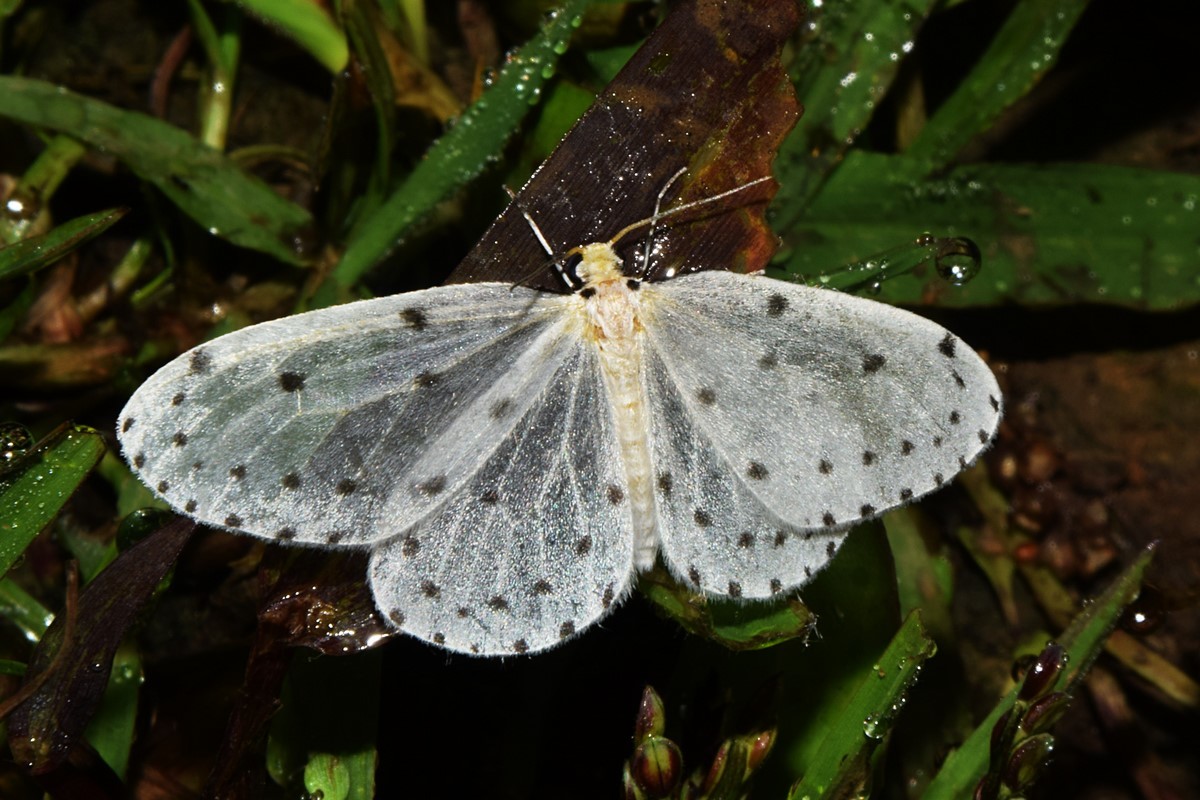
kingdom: Animalia
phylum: Arthropoda
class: Insecta
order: Lepidoptera
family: Geometridae
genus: Naxa
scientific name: Naxa textilis
